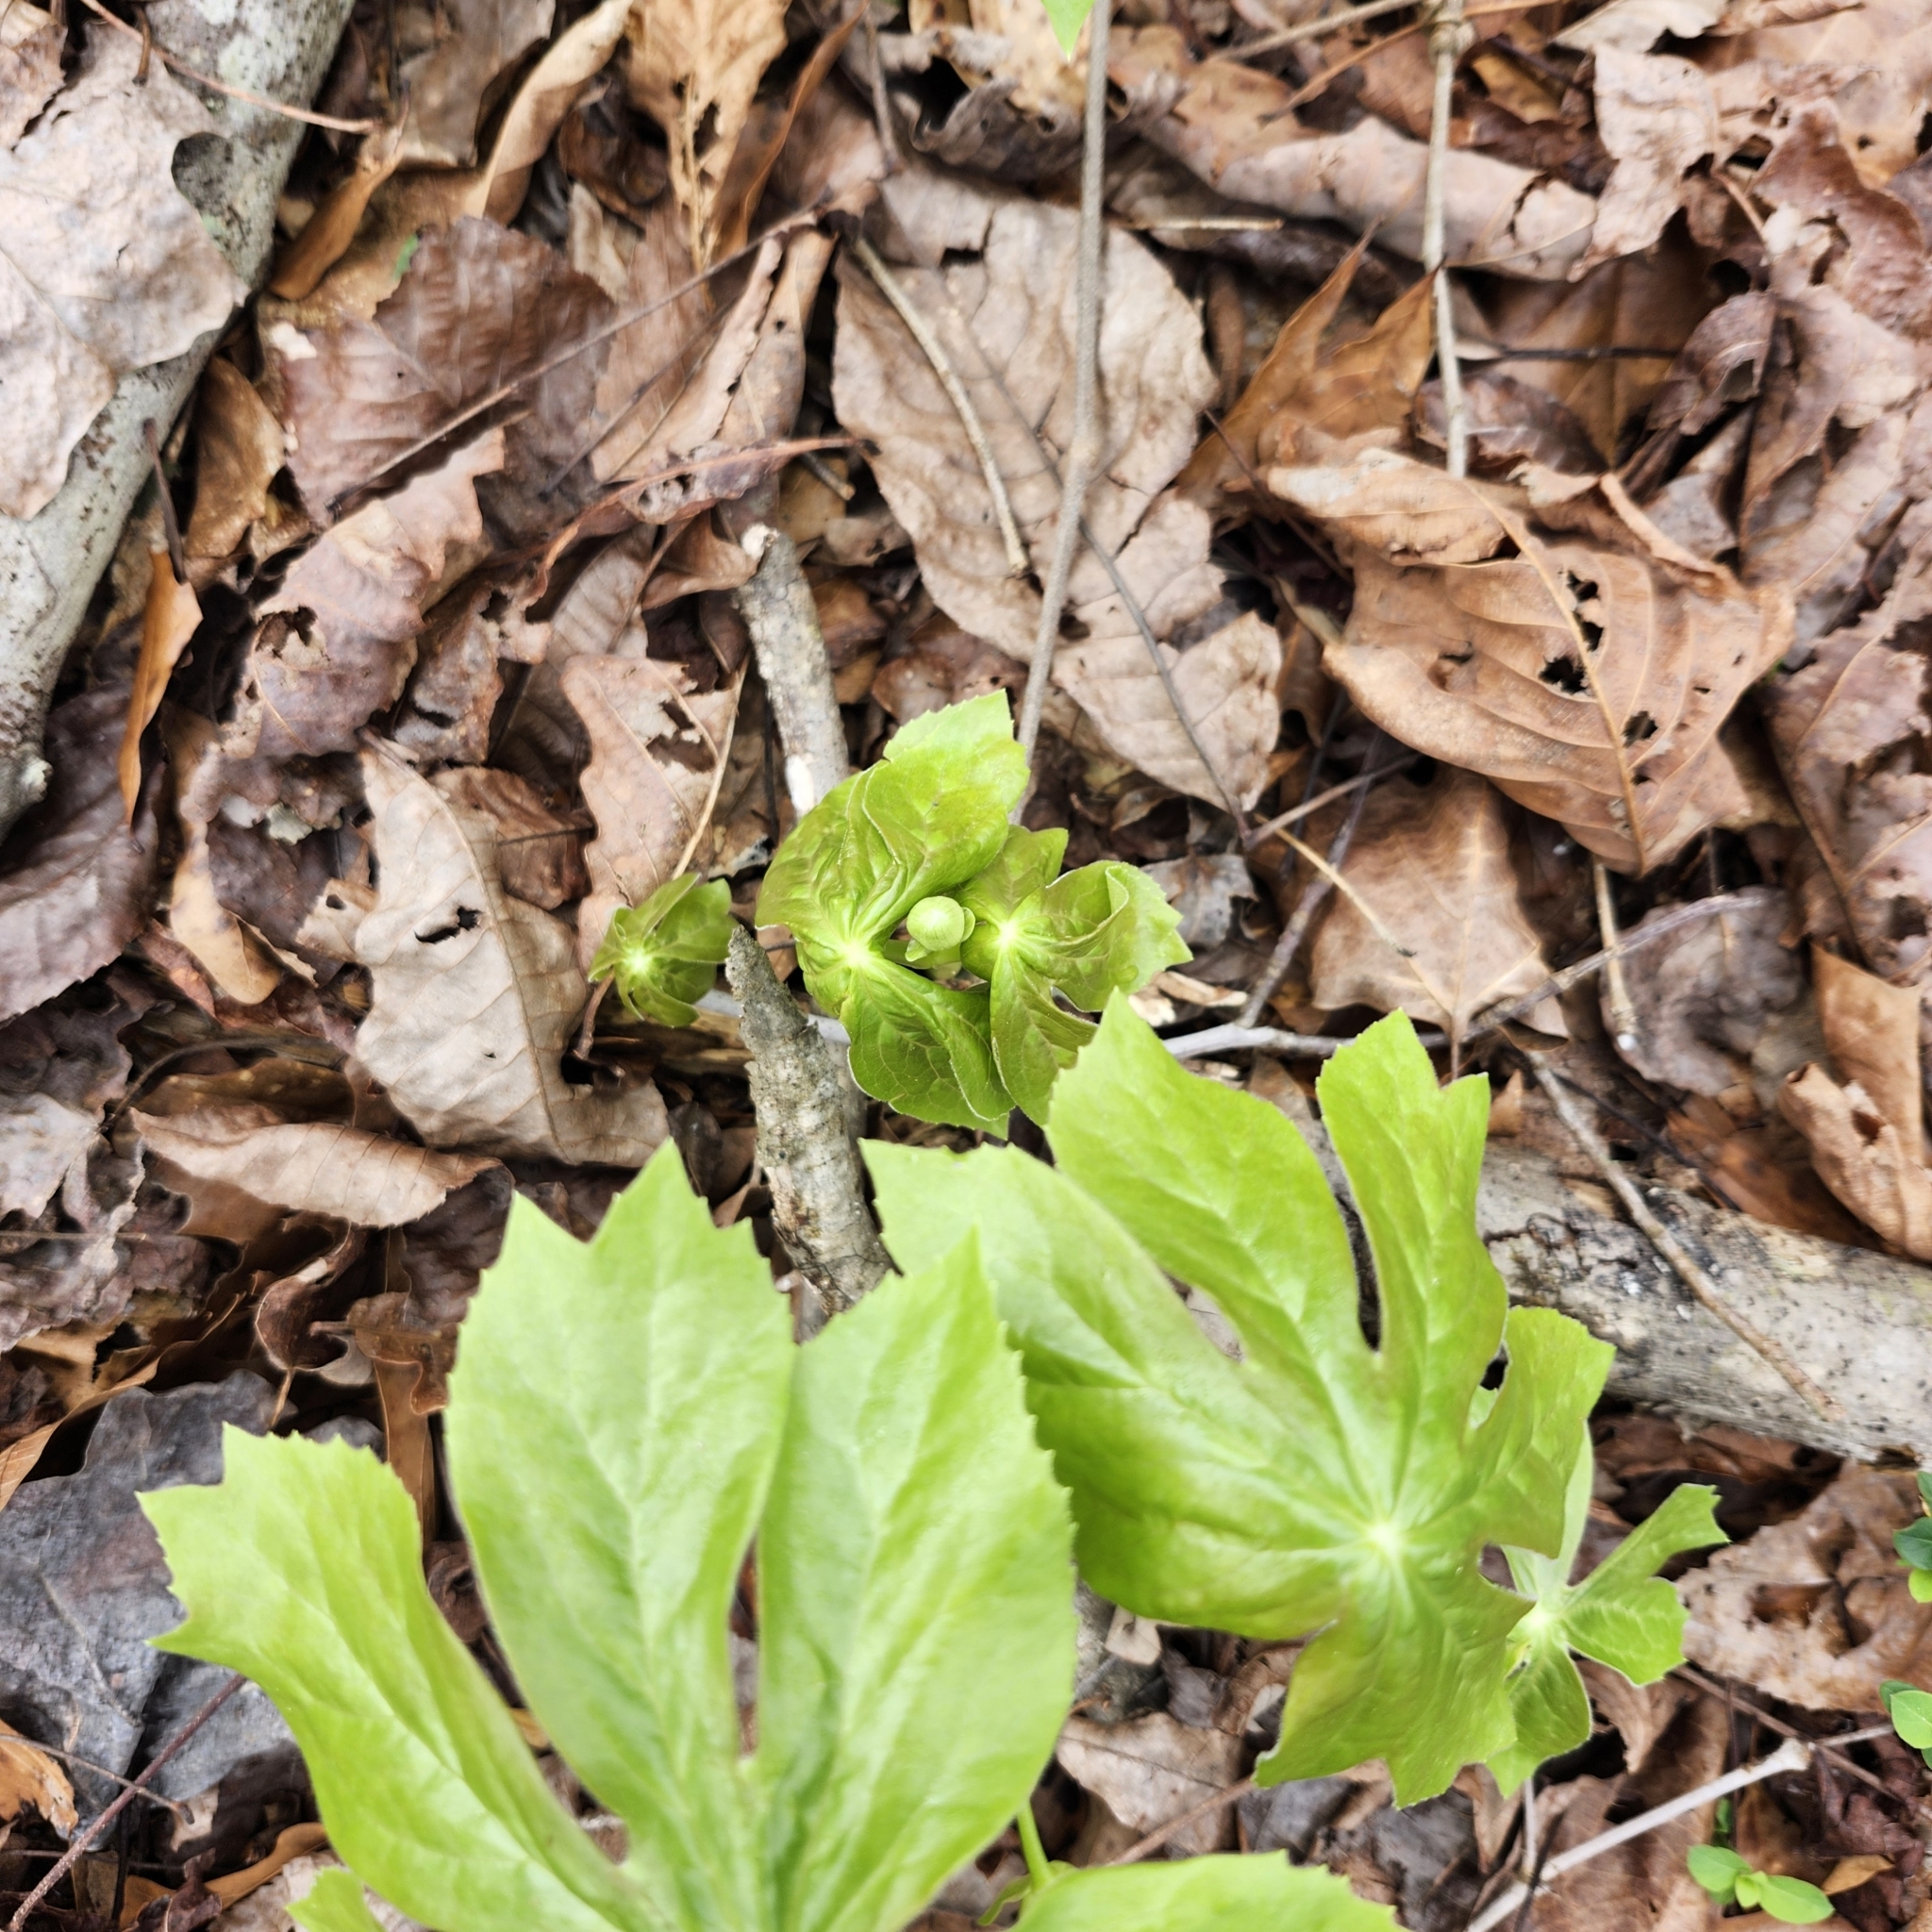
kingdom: Plantae
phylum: Tracheophyta
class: Magnoliopsida
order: Ranunculales
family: Berberidaceae
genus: Podophyllum
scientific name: Podophyllum peltatum
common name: Wild mandrake
